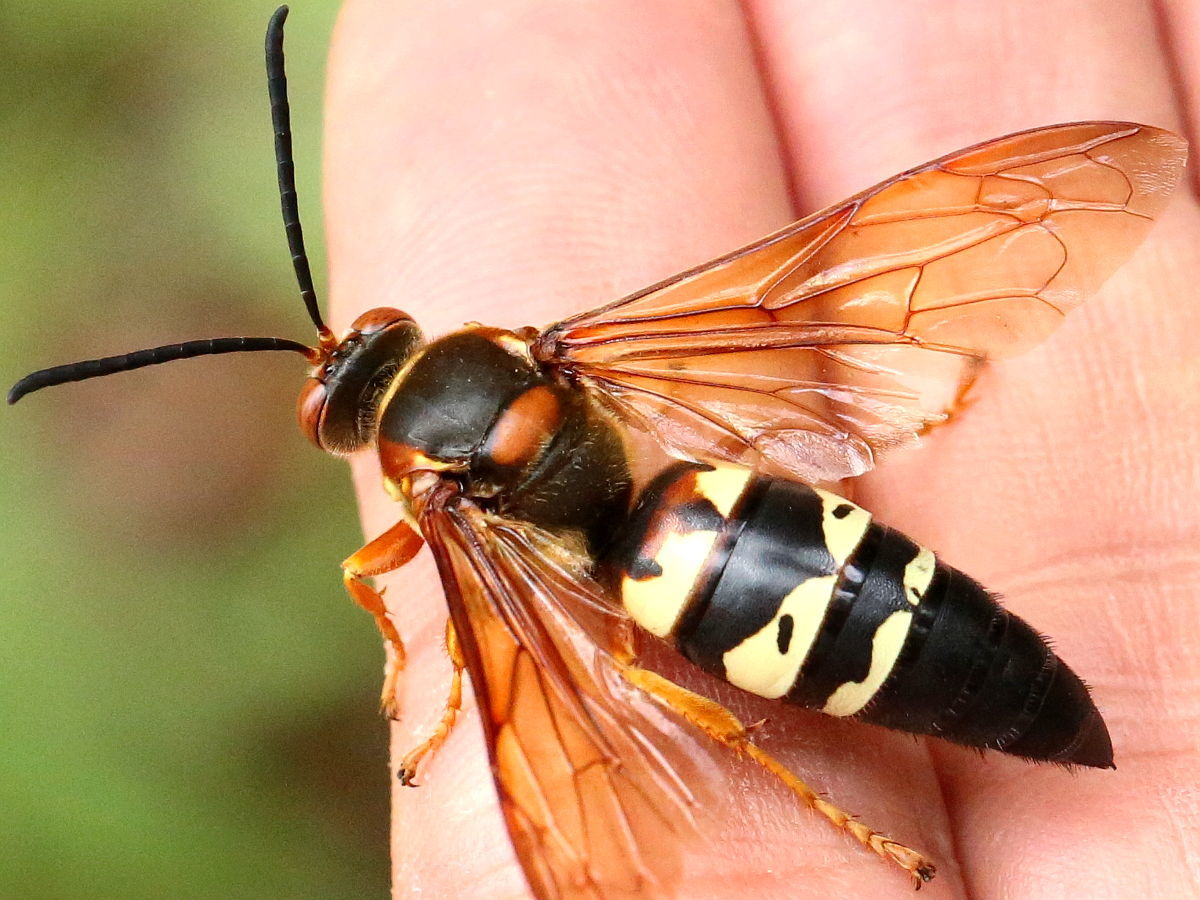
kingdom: Animalia
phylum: Arthropoda
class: Insecta
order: Hymenoptera
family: Crabronidae
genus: Sphecius
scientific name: Sphecius speciosus
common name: Cicada killer
